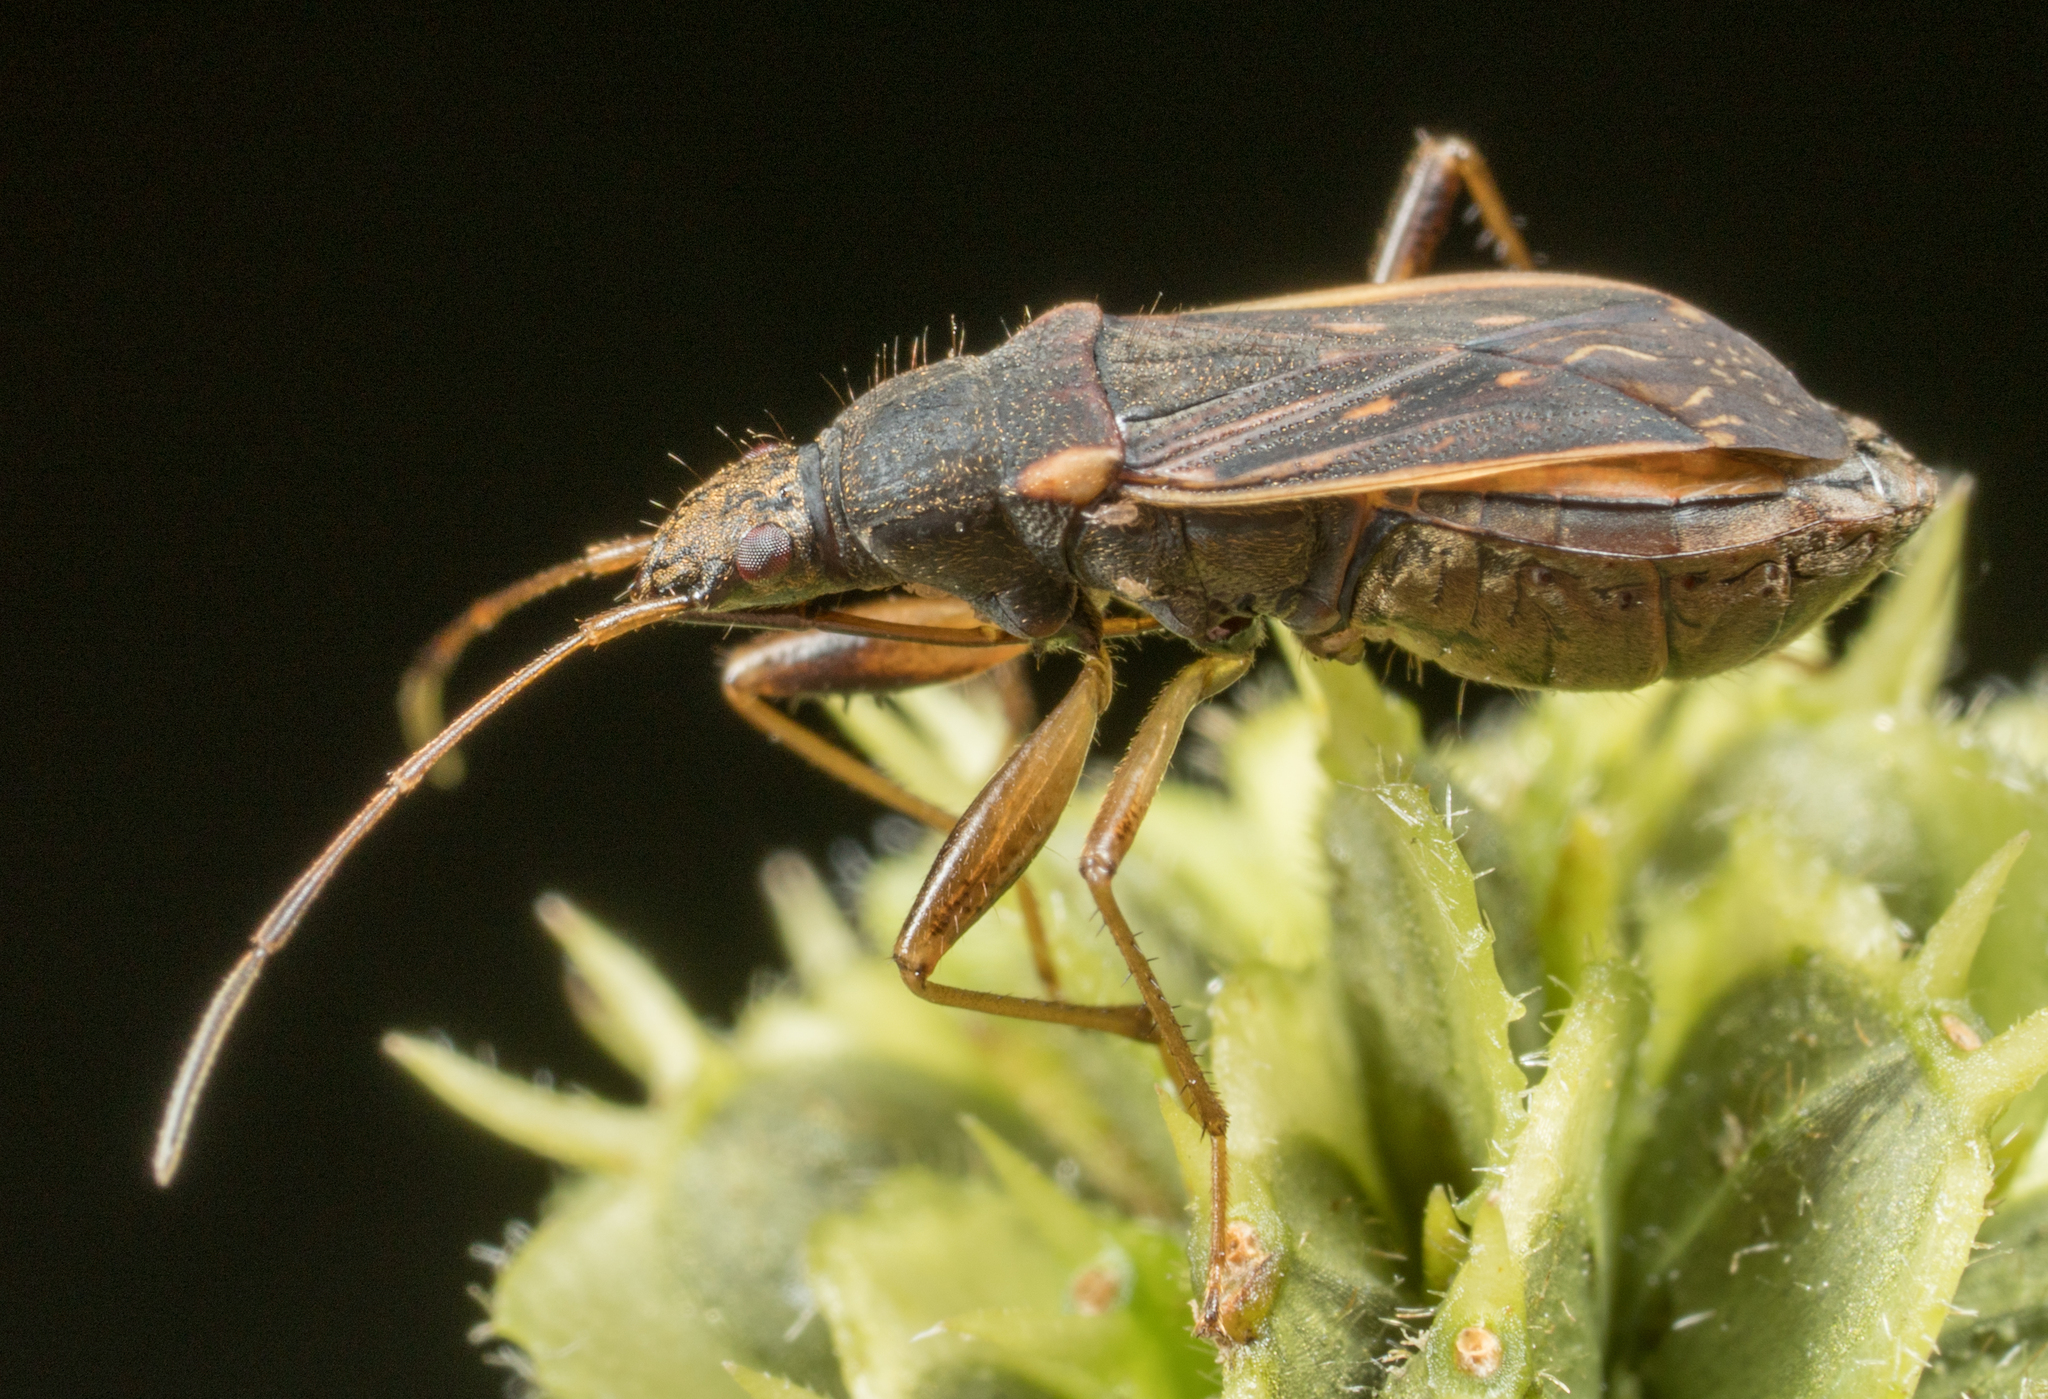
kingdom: Animalia
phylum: Arthropoda
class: Insecta
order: Hemiptera
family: Rhyparochromidae
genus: Ligyrocoris
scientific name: Ligyrocoris obscurus
